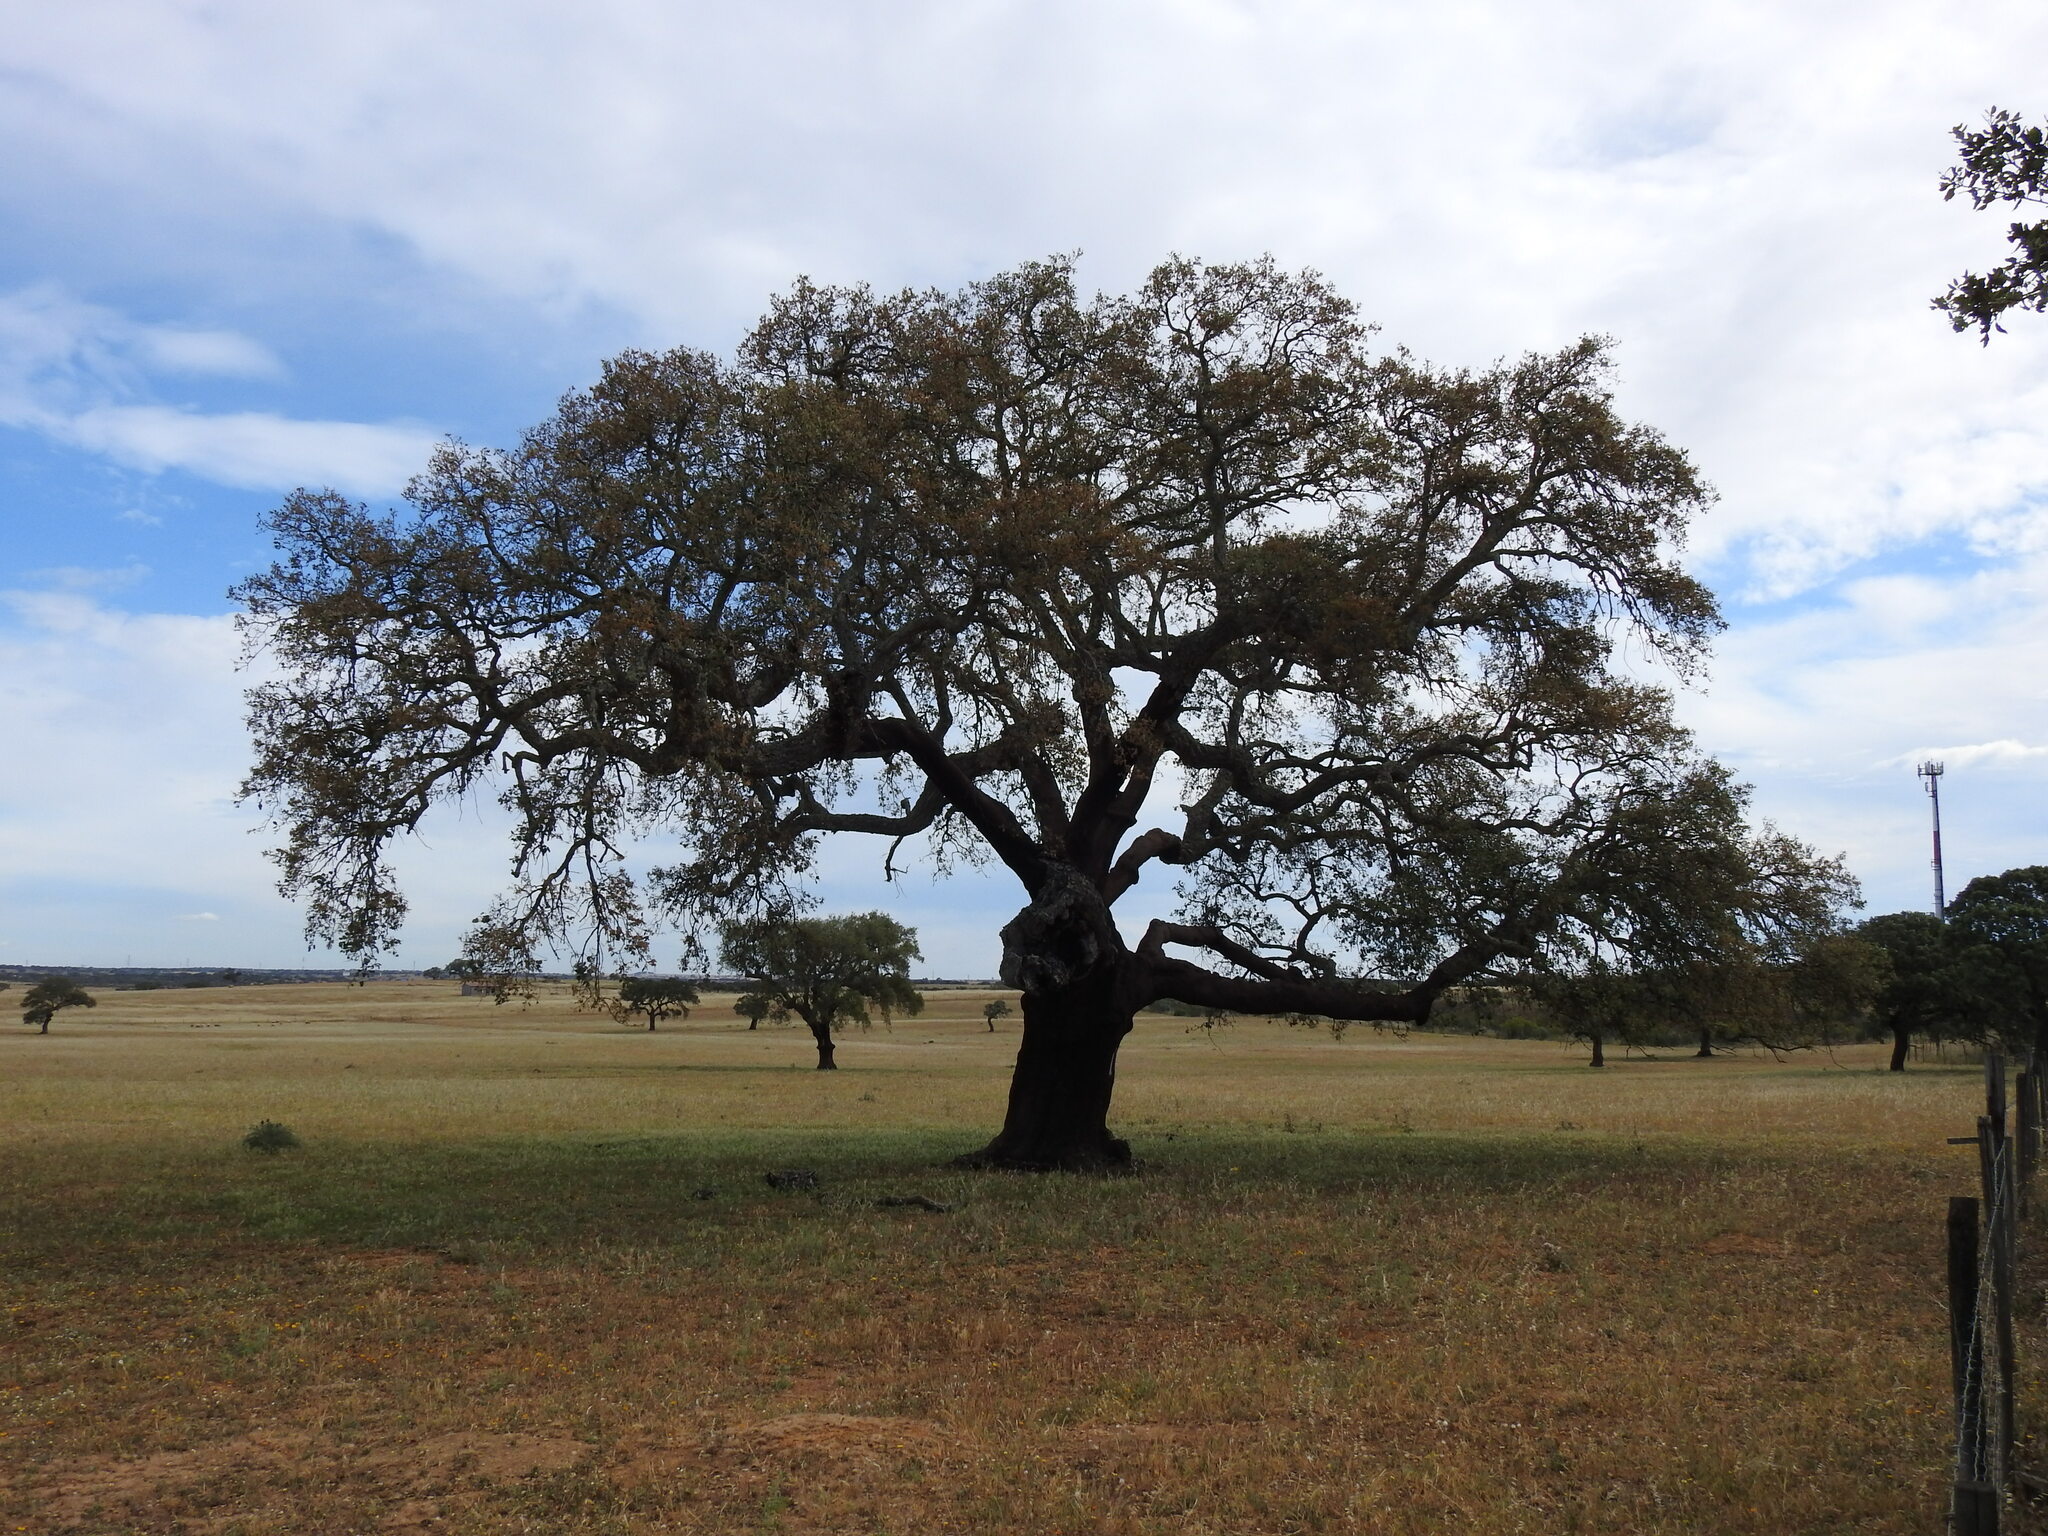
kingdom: Plantae
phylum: Tracheophyta
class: Magnoliopsida
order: Fagales
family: Fagaceae
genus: Quercus
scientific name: Quercus suber
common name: Cork oak
